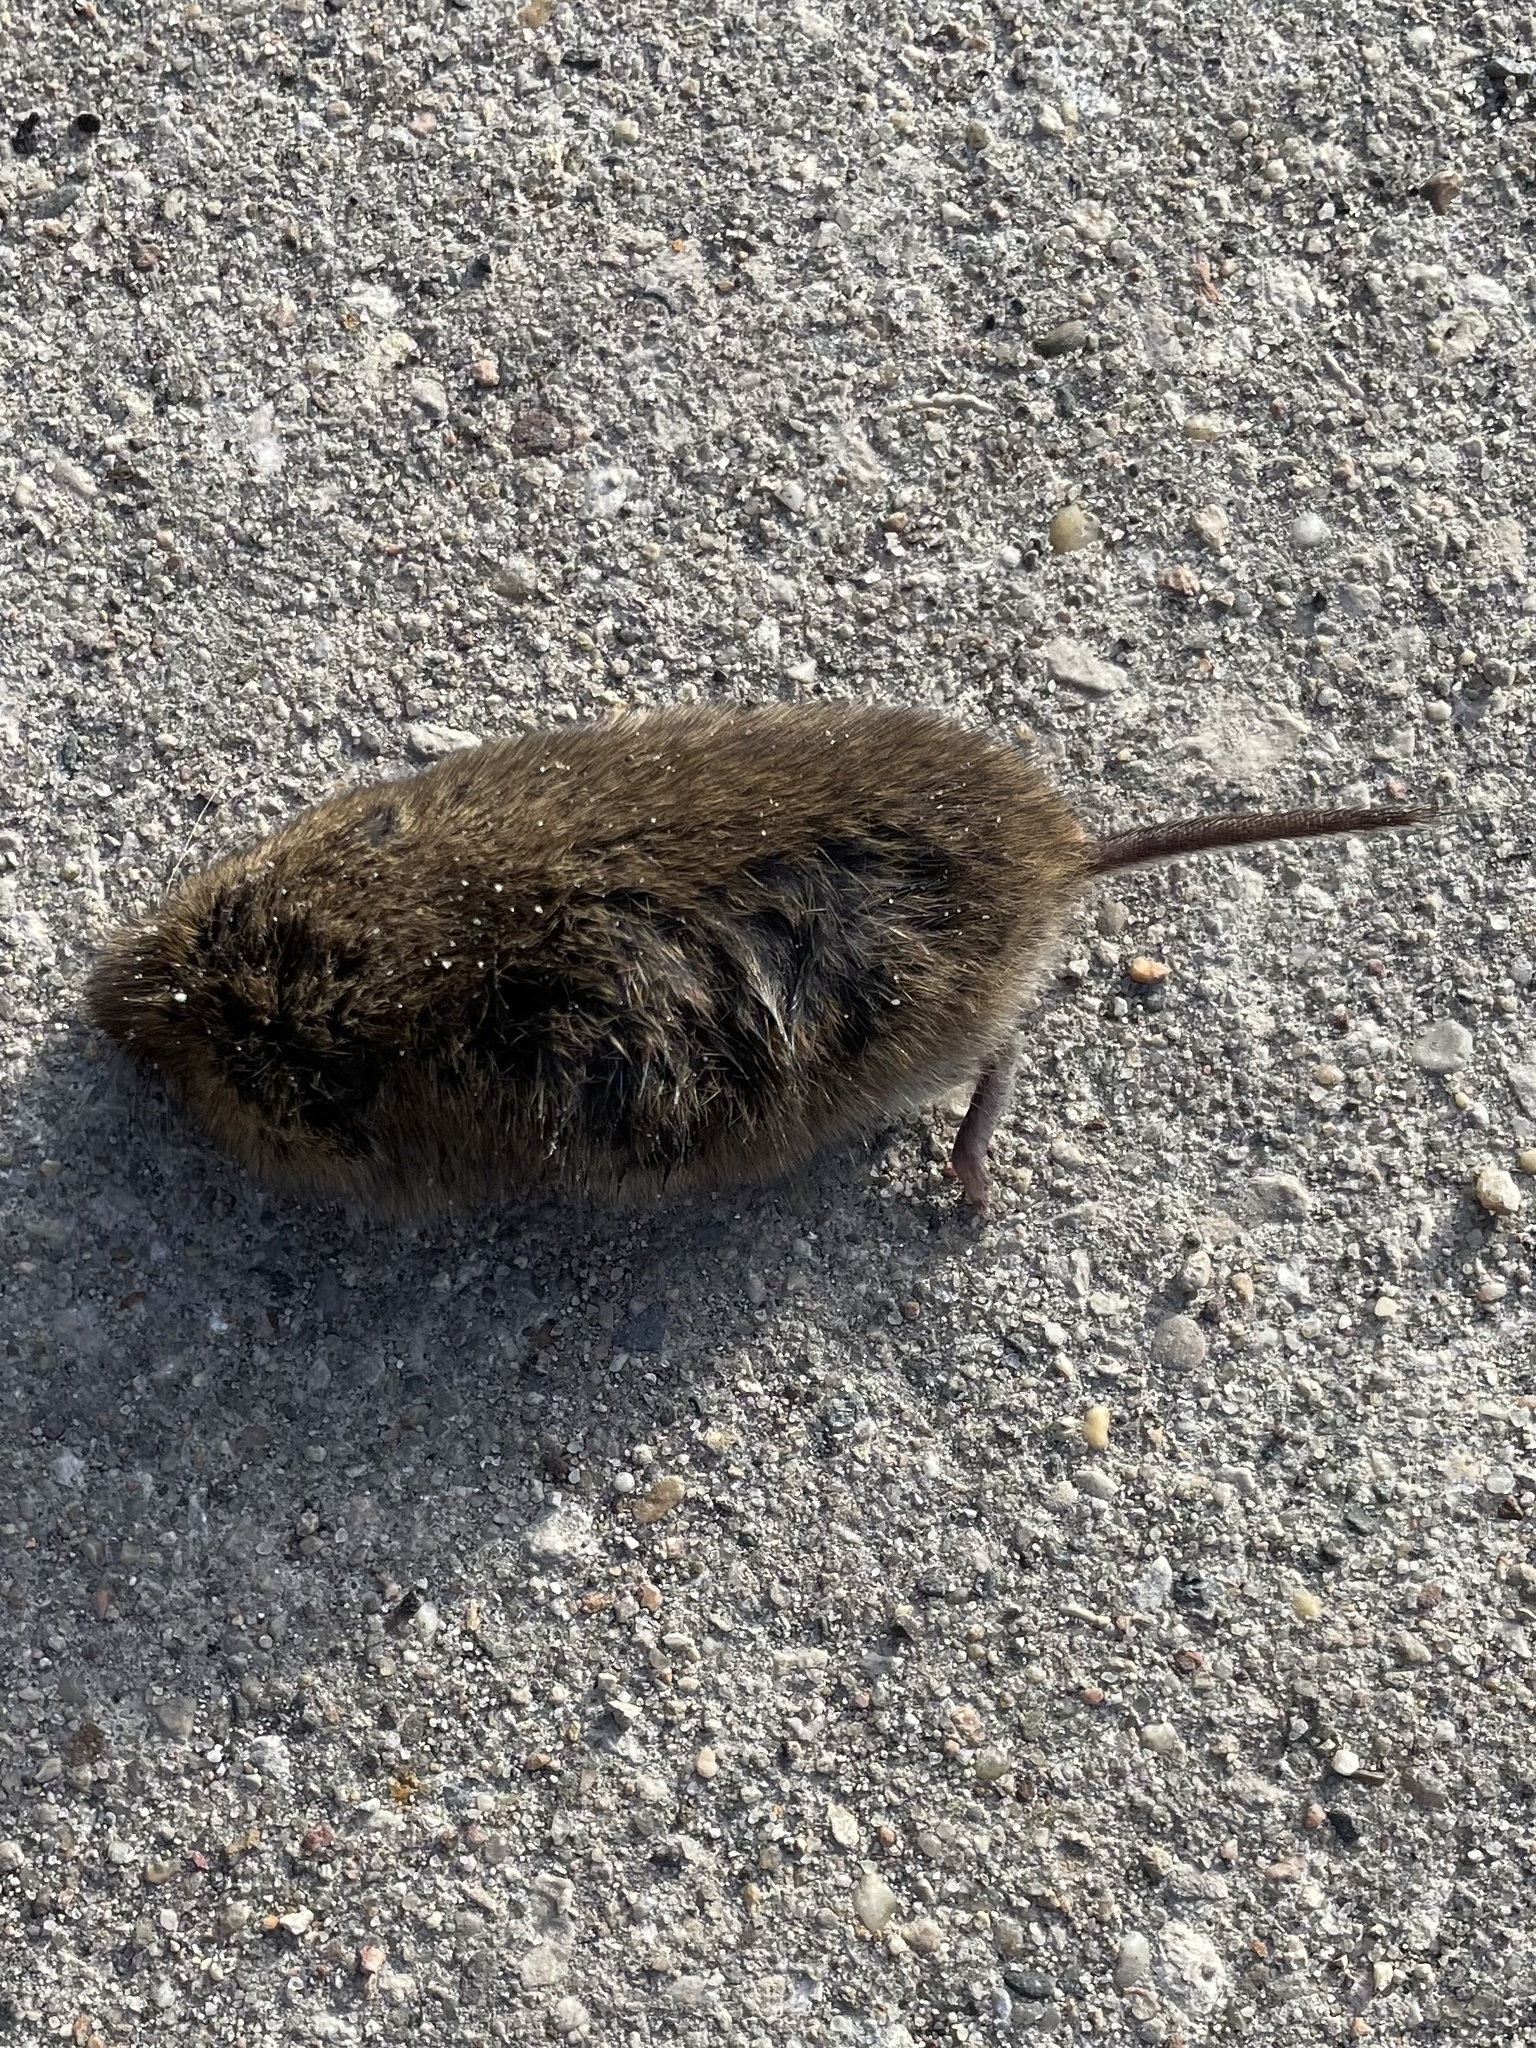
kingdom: Animalia
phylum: Chordata
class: Mammalia
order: Rodentia
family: Cricetidae
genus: Microtus
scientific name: Microtus pennsylvanicus
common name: Meadow vole
